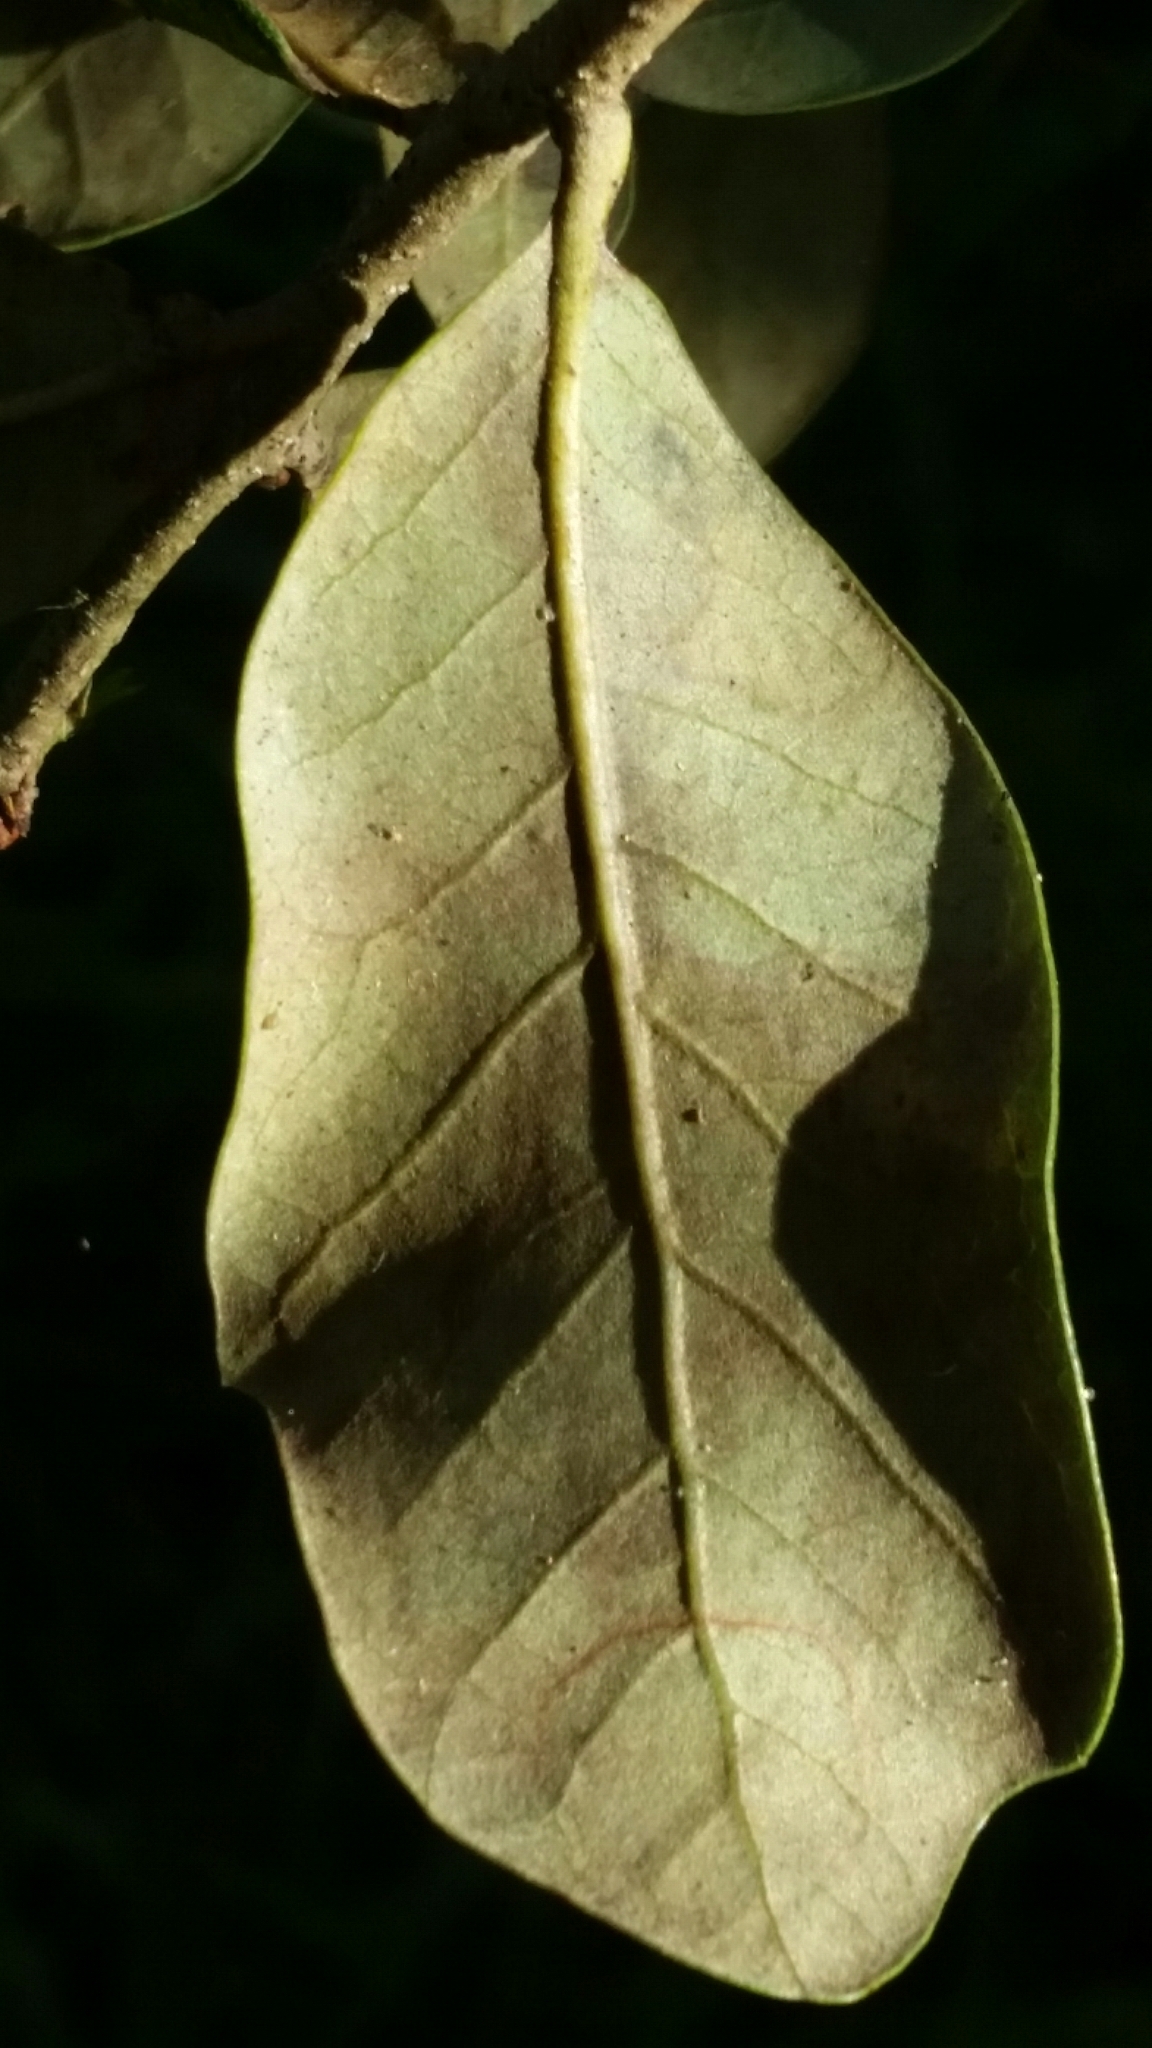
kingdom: Plantae
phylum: Tracheophyta
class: Magnoliopsida
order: Fagales
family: Fagaceae
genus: Quercus
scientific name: Quercus virginiana
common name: Southern live oak
